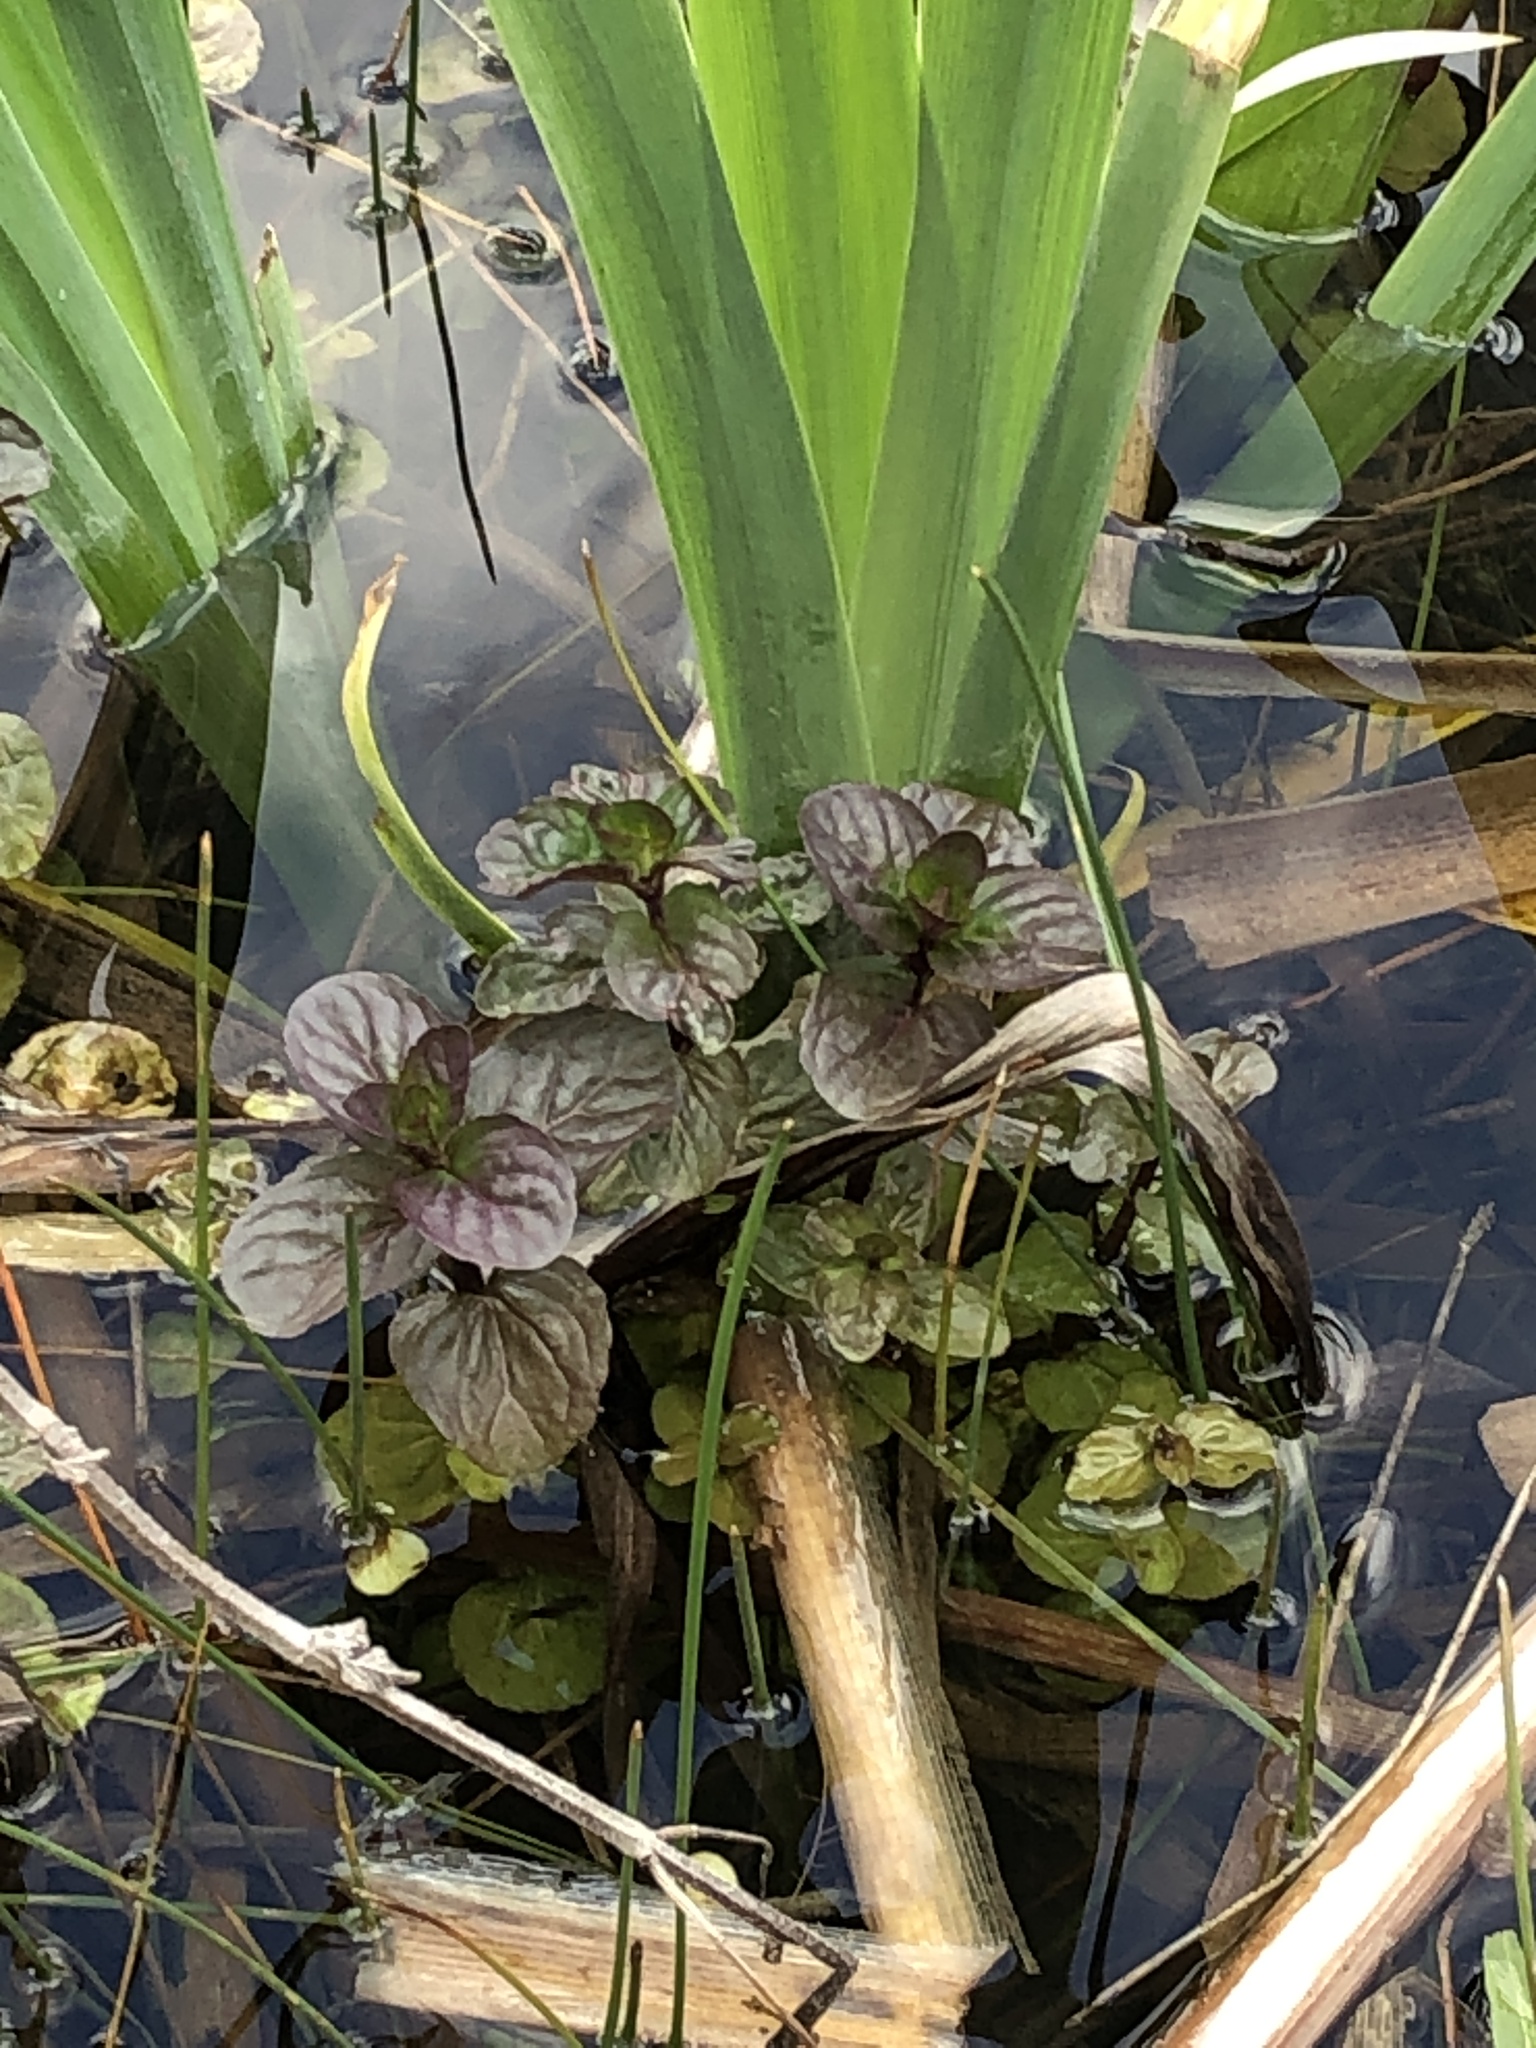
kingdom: Plantae
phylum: Tracheophyta
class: Magnoliopsida
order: Lamiales
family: Lamiaceae
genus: Mentha
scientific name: Mentha aquatica
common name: Water mint
